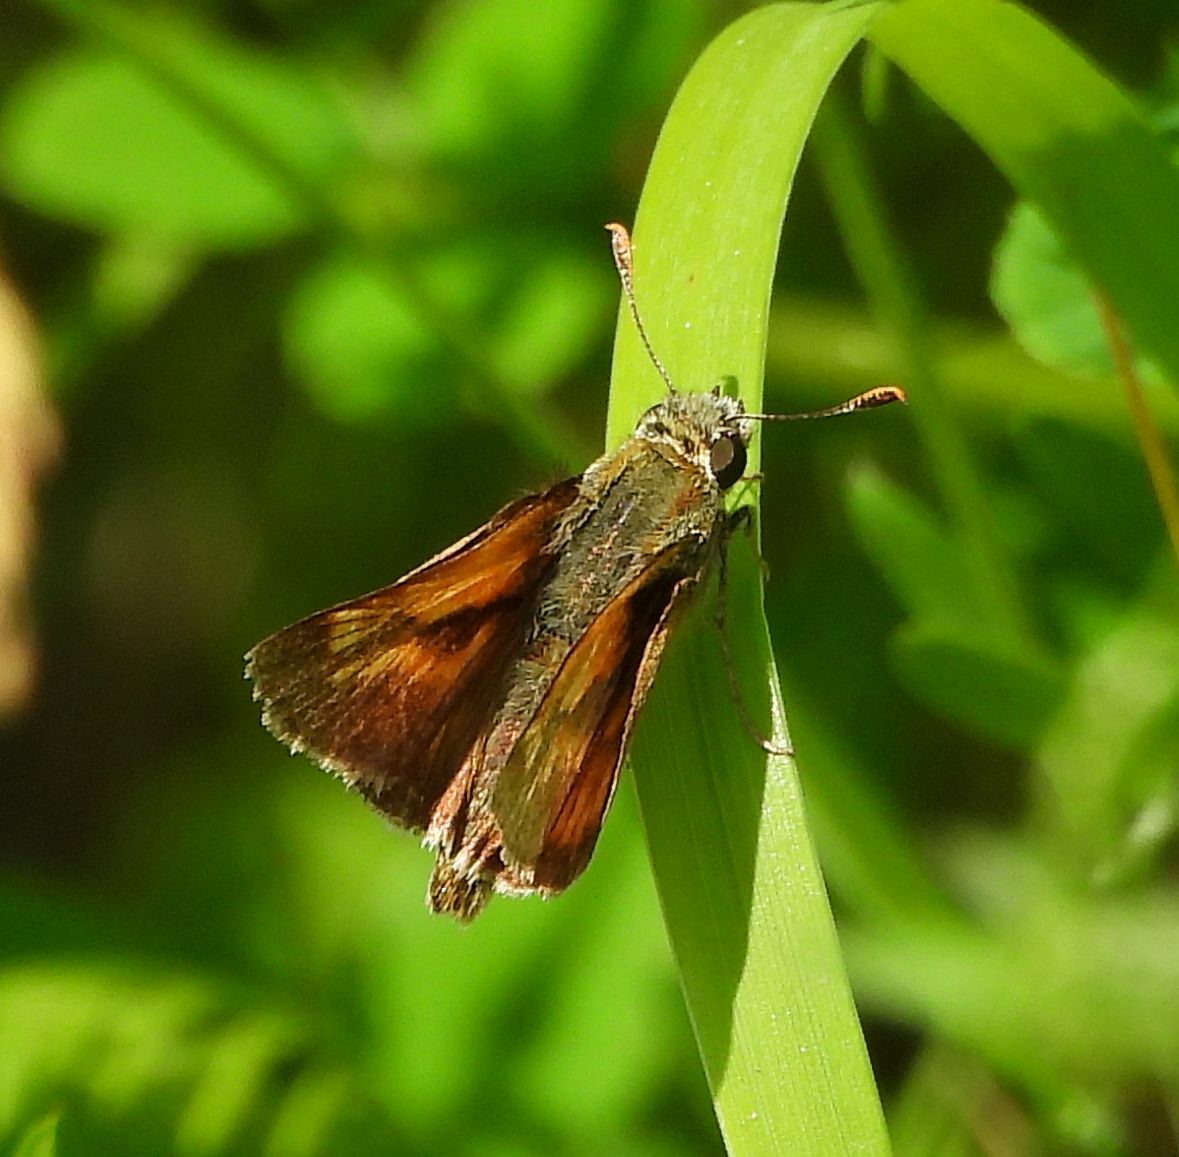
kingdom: Animalia
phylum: Arthropoda
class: Insecta
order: Lepidoptera
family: Hesperiidae
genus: Polites
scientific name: Polites mystic
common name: Long dash
